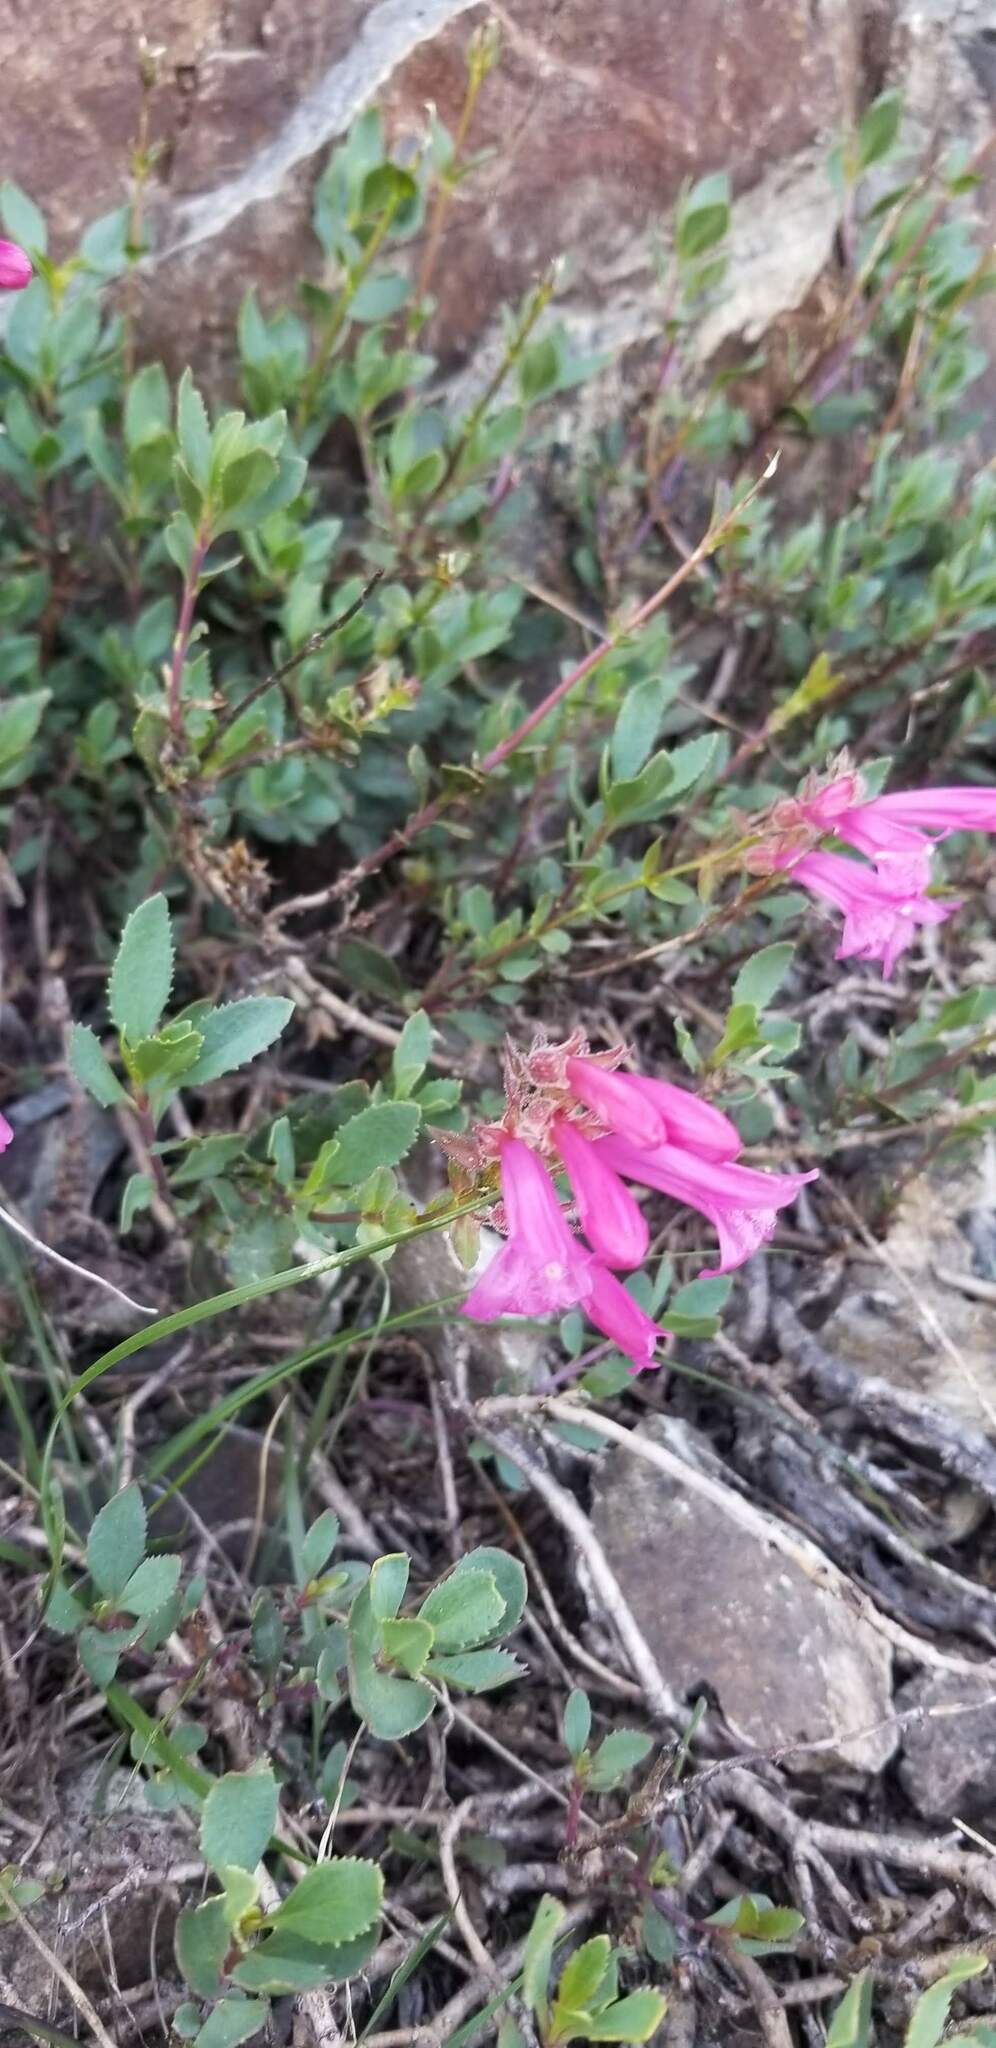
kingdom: Plantae
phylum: Tracheophyta
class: Magnoliopsida
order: Lamiales
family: Plantaginaceae
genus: Penstemon
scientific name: Penstemon newberryi
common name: Mountain-pride
